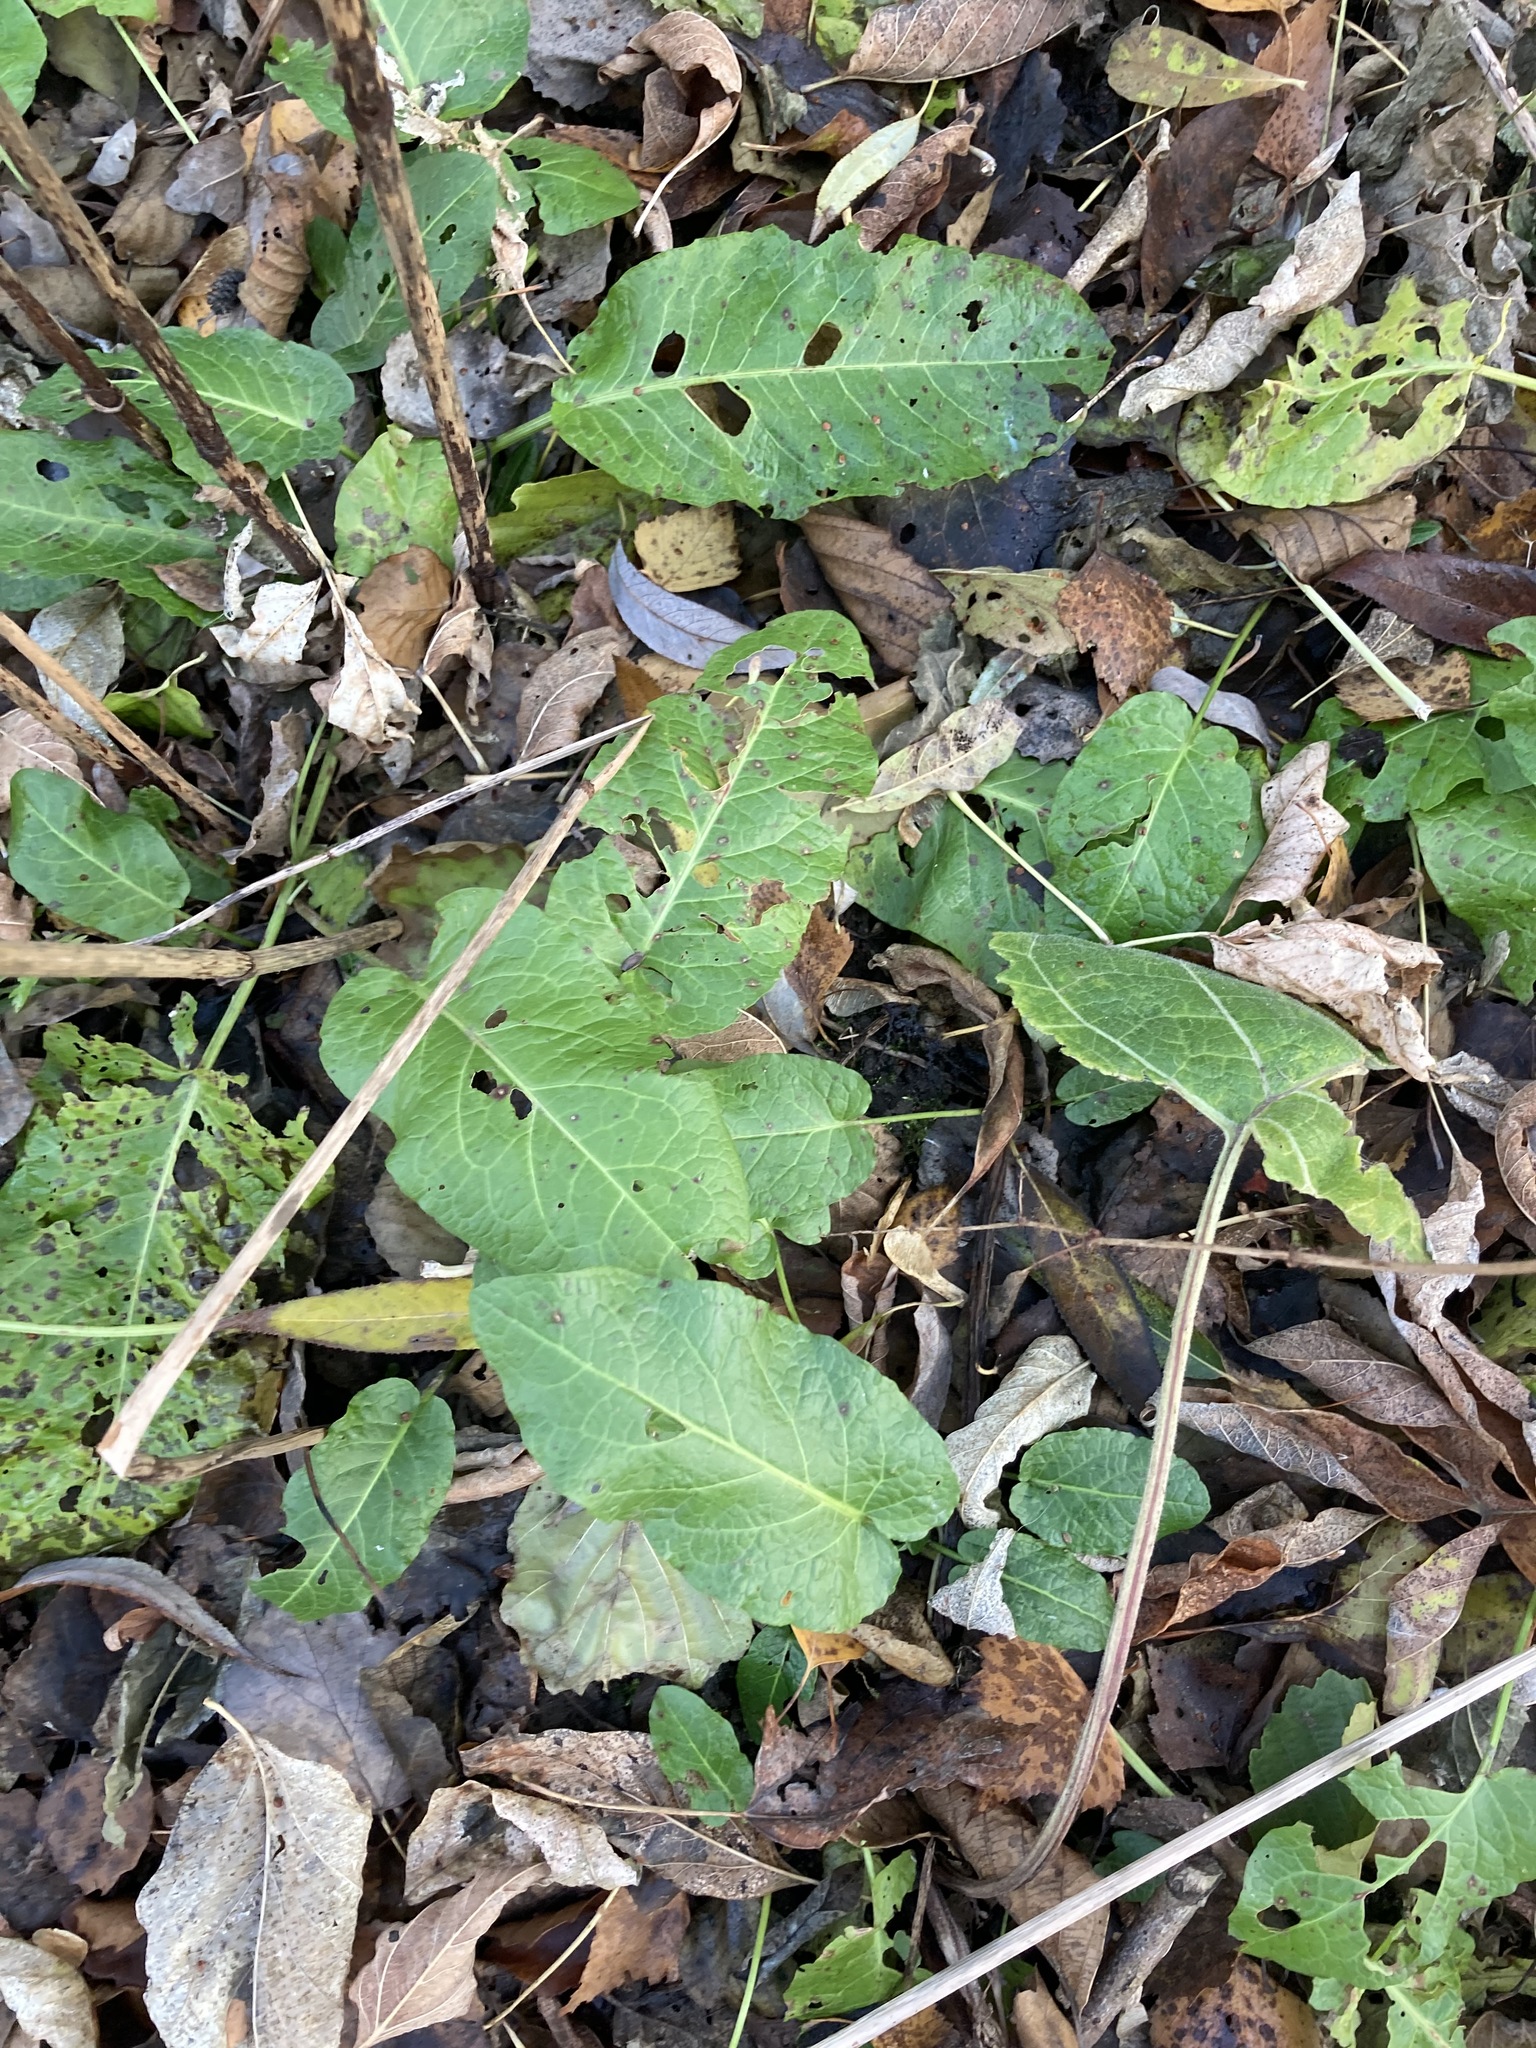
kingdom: Plantae
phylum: Tracheophyta
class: Magnoliopsida
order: Caryophyllales
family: Polygonaceae
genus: Rumex
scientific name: Rumex obtusifolius
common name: Bitter dock
